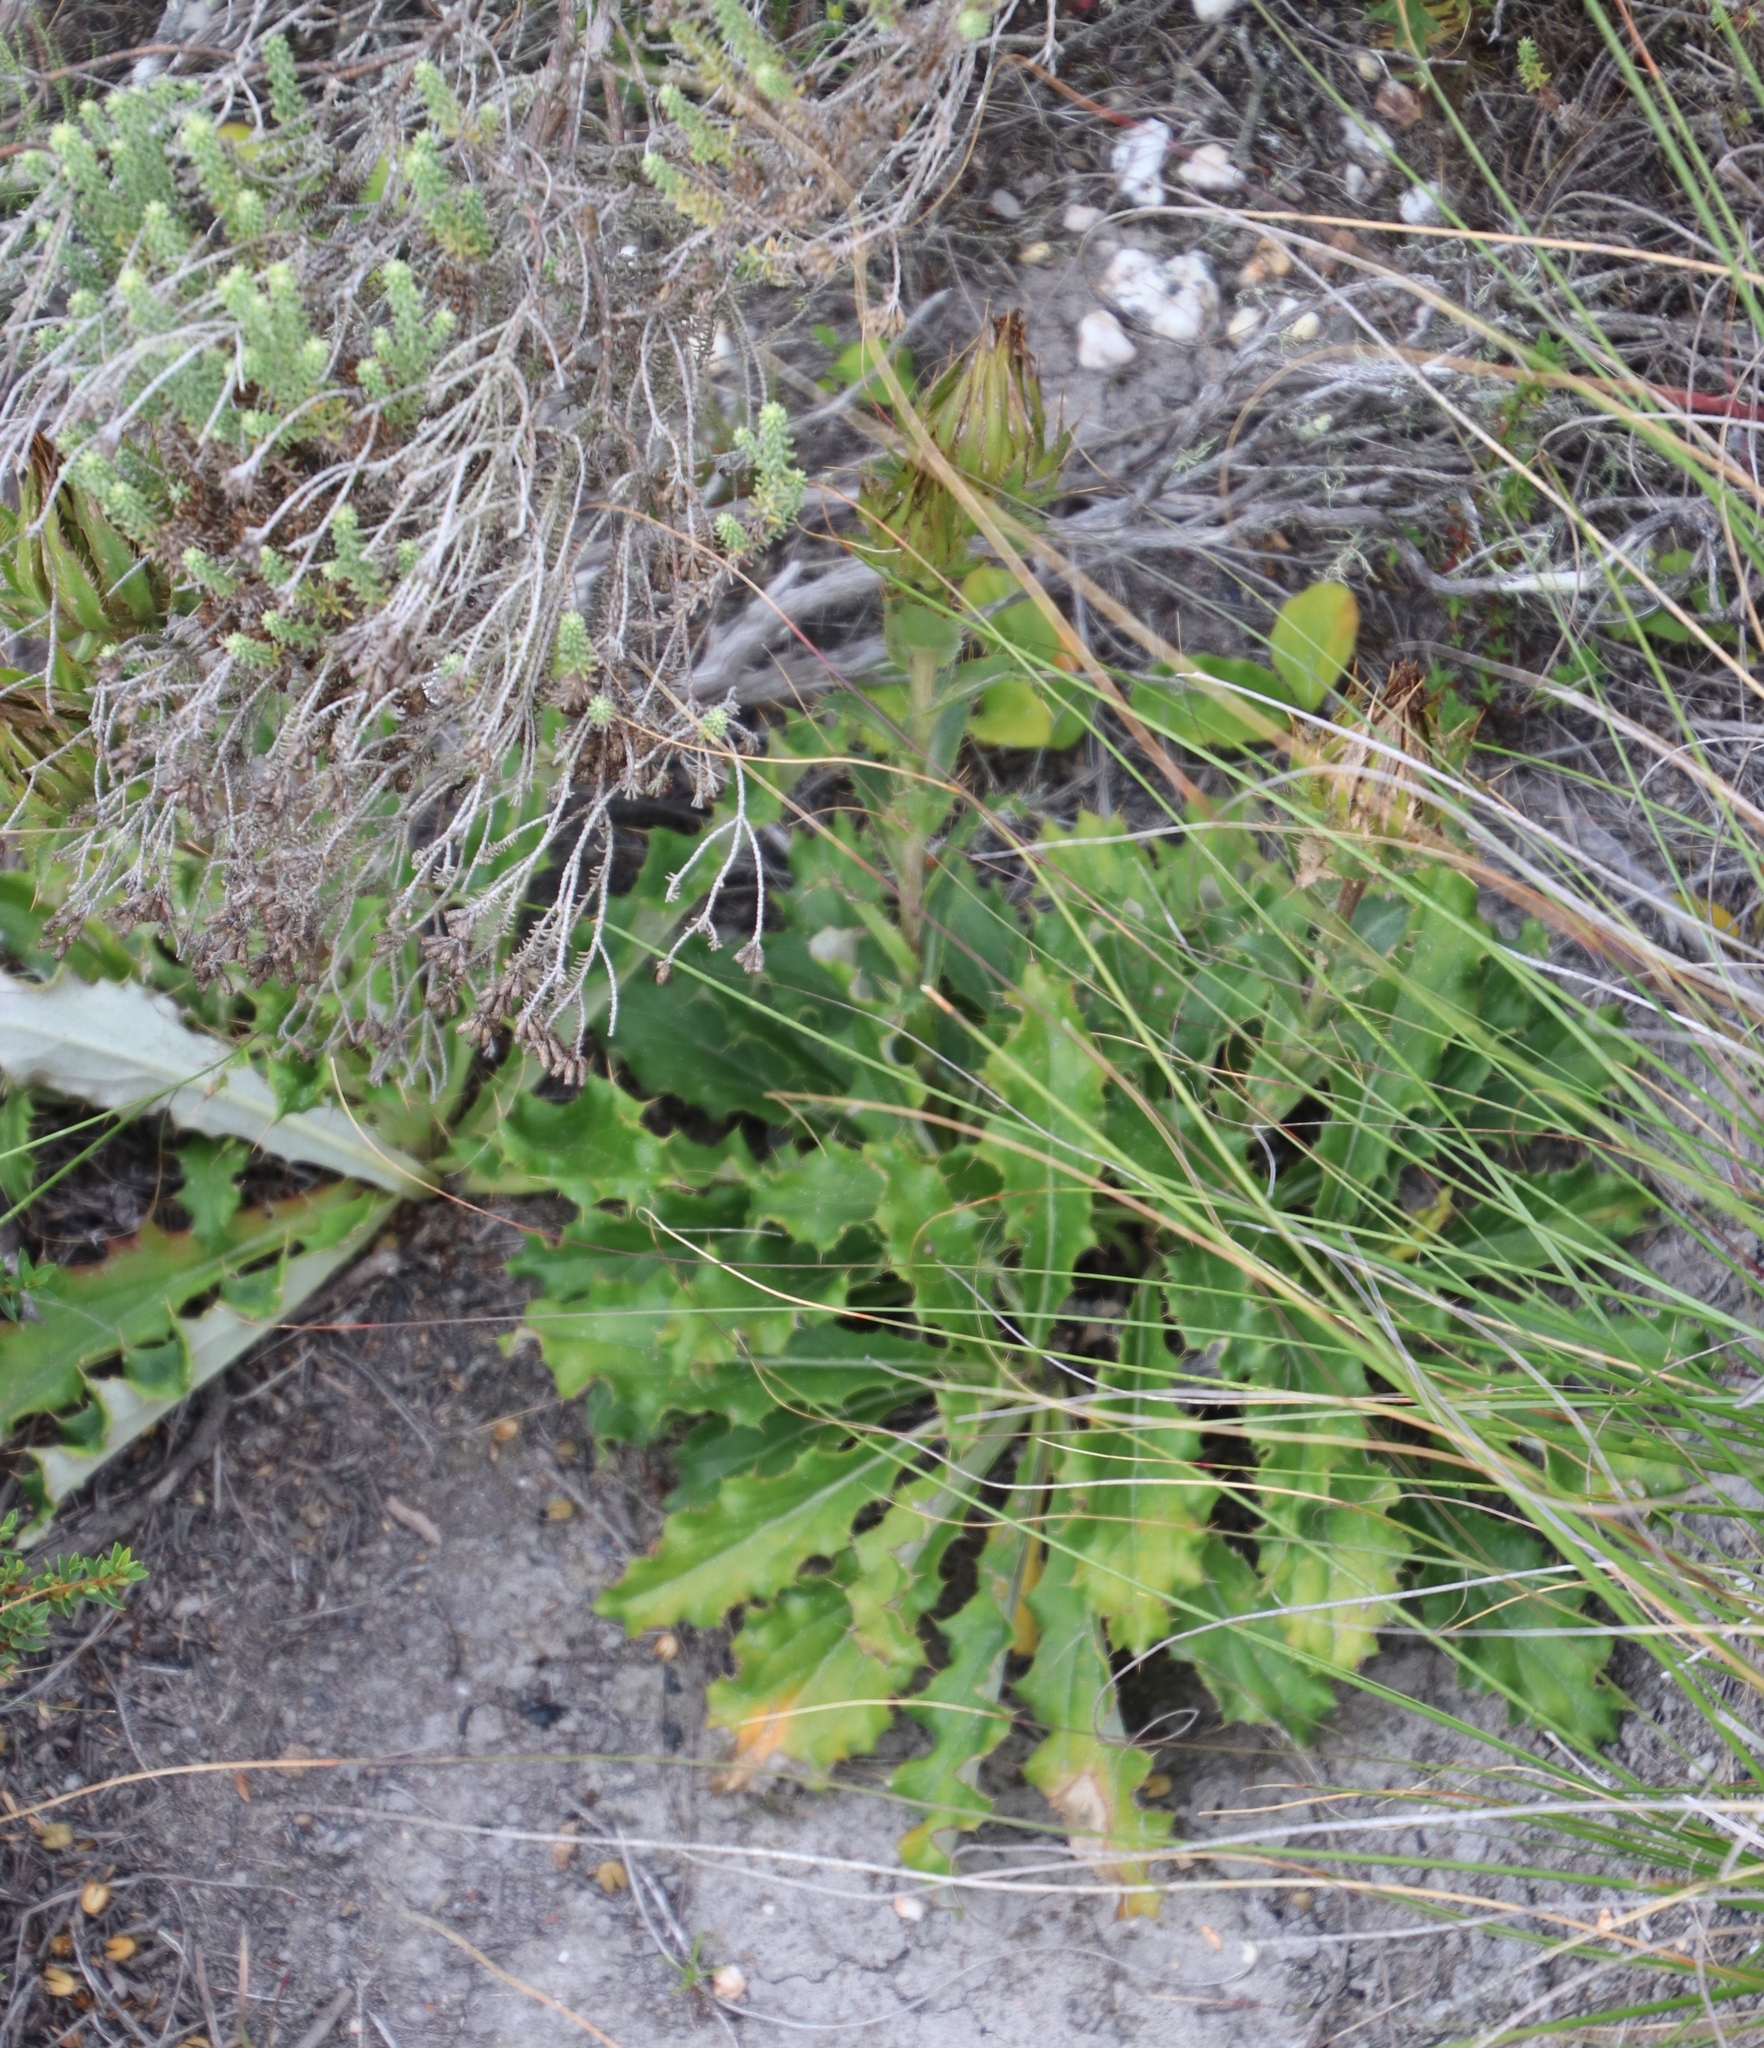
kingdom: Plantae
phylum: Tracheophyta
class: Magnoliopsida
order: Asterales
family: Asteraceae
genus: Berkheya
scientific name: Berkheya armata
